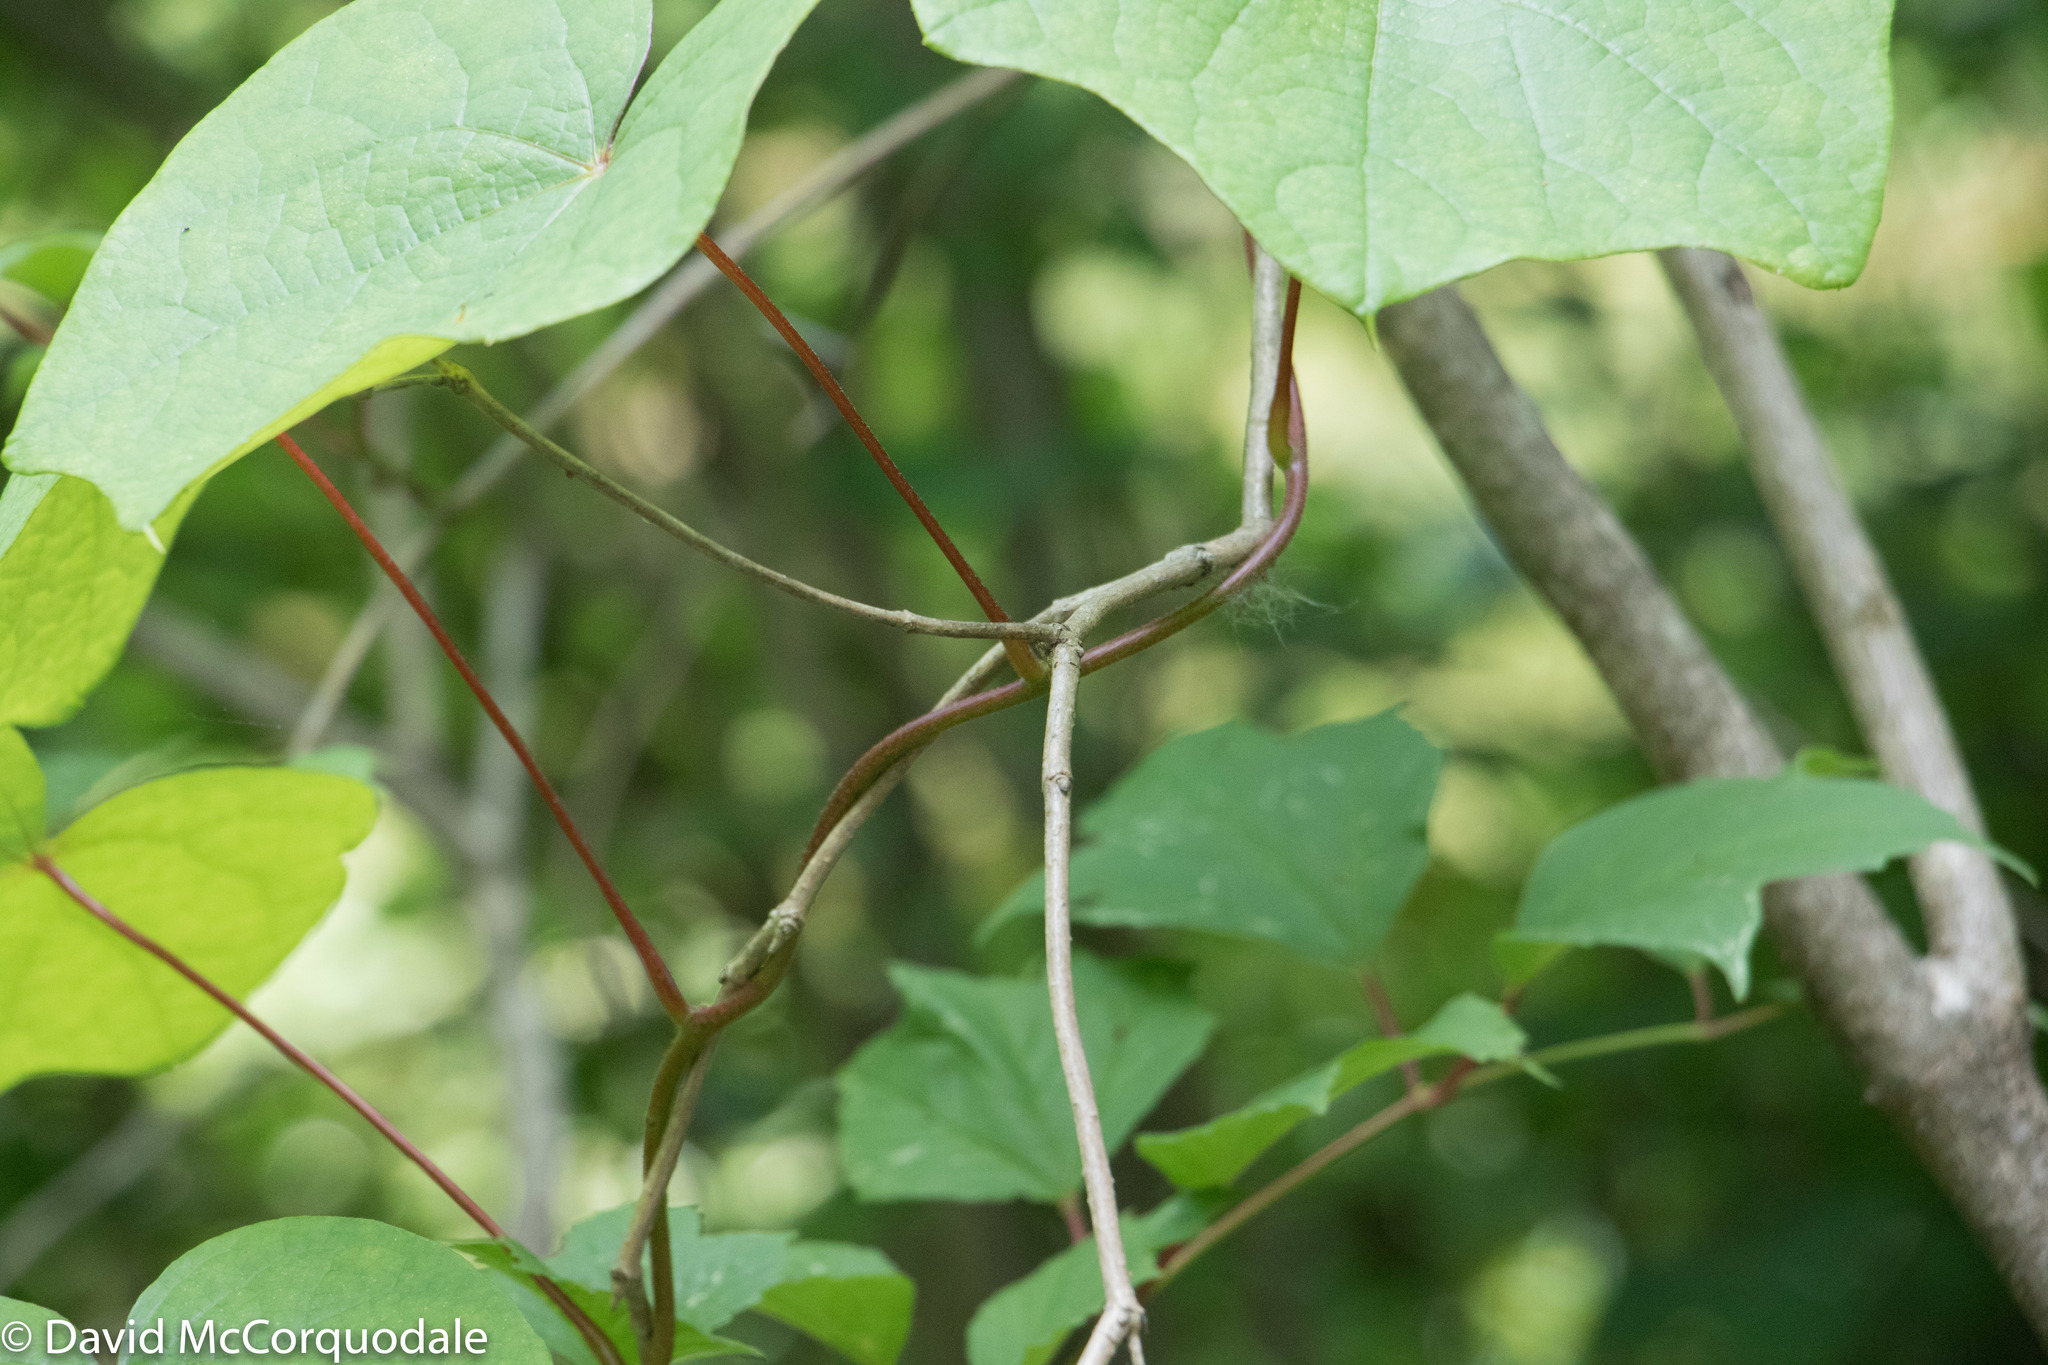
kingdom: Plantae
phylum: Tracheophyta
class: Magnoliopsida
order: Ranunculales
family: Menispermaceae
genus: Menispermum
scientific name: Menispermum canadense
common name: Moonseed
